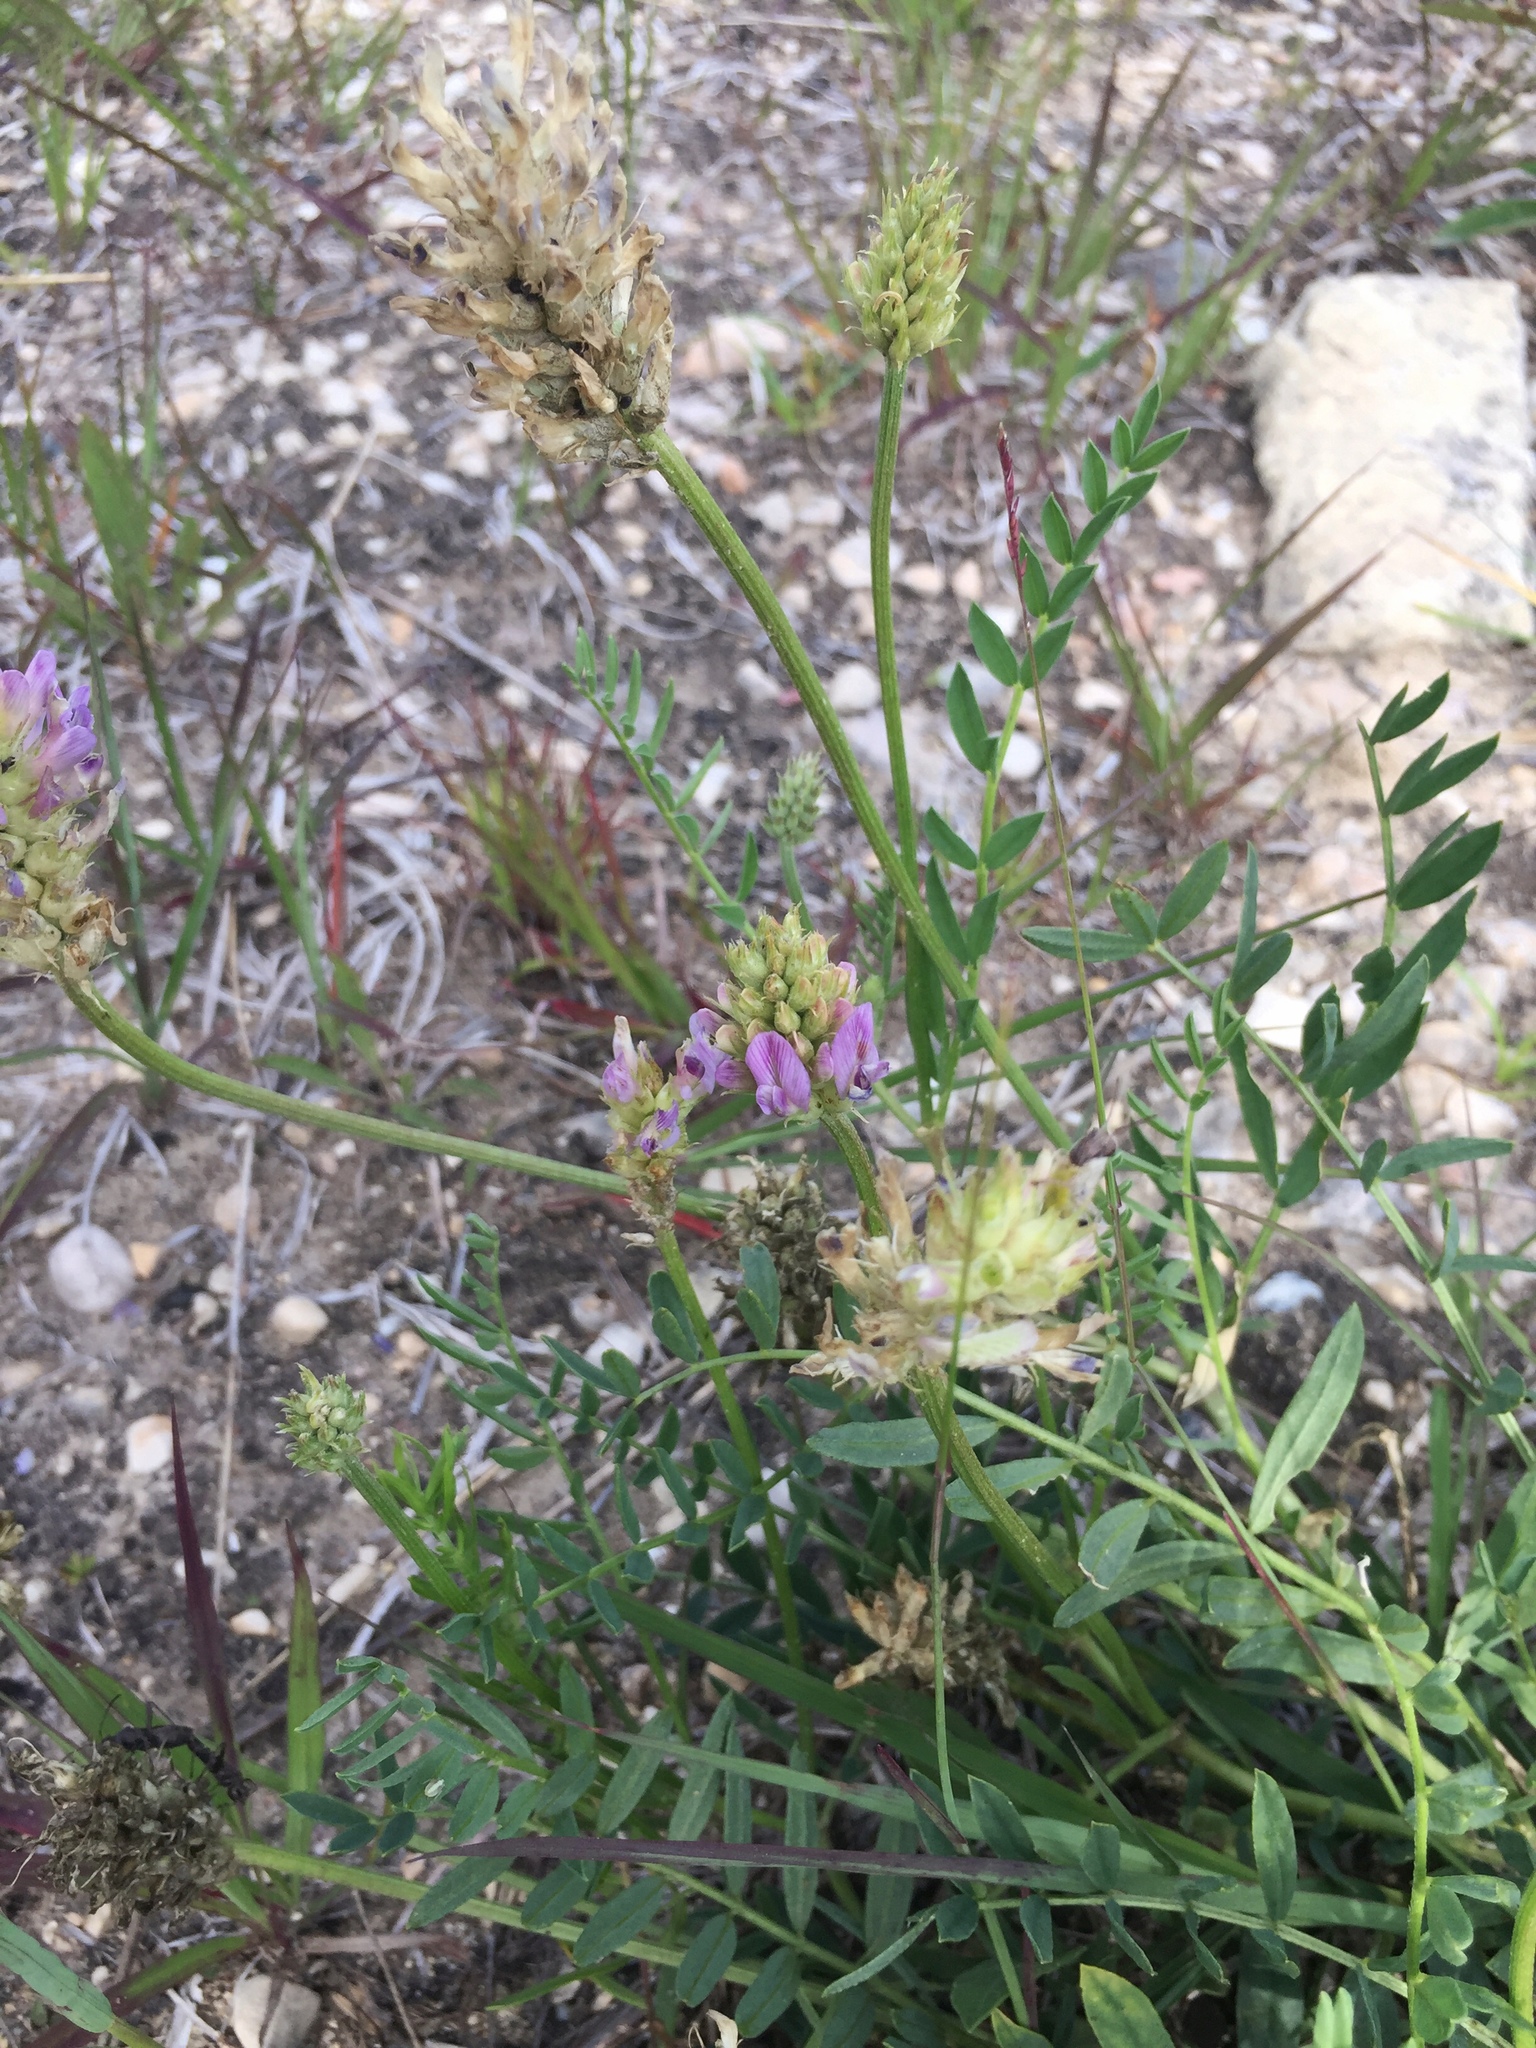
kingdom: Plantae
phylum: Tracheophyta
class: Magnoliopsida
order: Fabales
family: Fabaceae
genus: Astragalus
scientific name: Astragalus laxmannii
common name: Laxmann's milk-vetch
